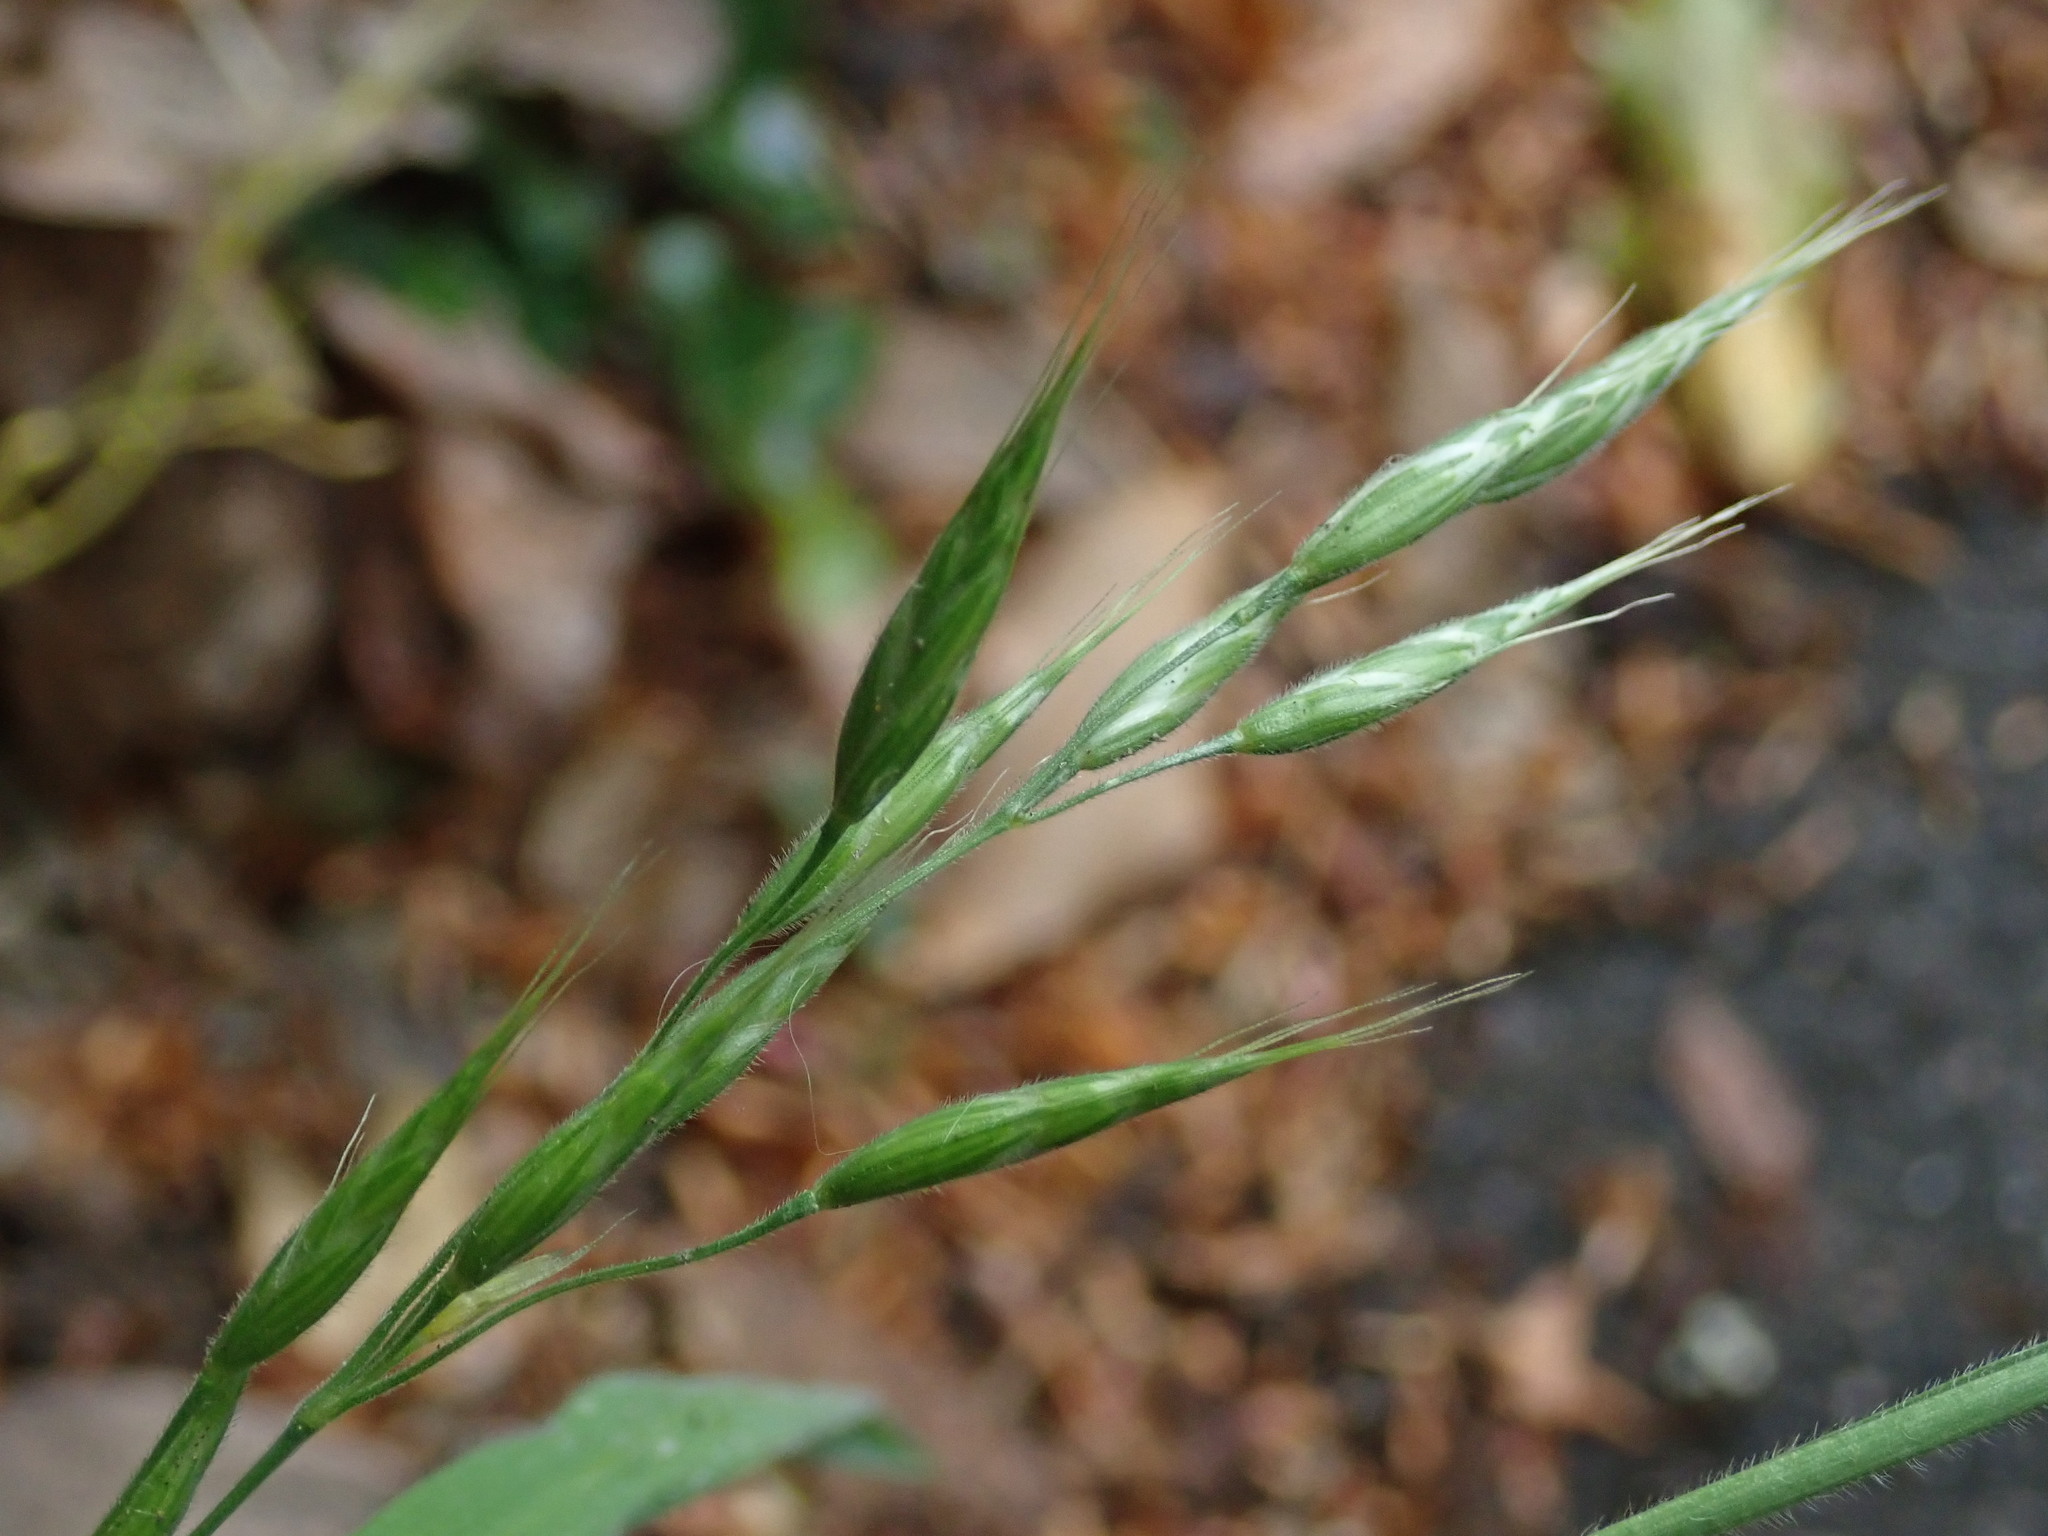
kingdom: Plantae
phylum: Tracheophyta
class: Liliopsida
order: Poales
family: Poaceae
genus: Bromus
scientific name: Bromus hordeaceus
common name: Soft brome
